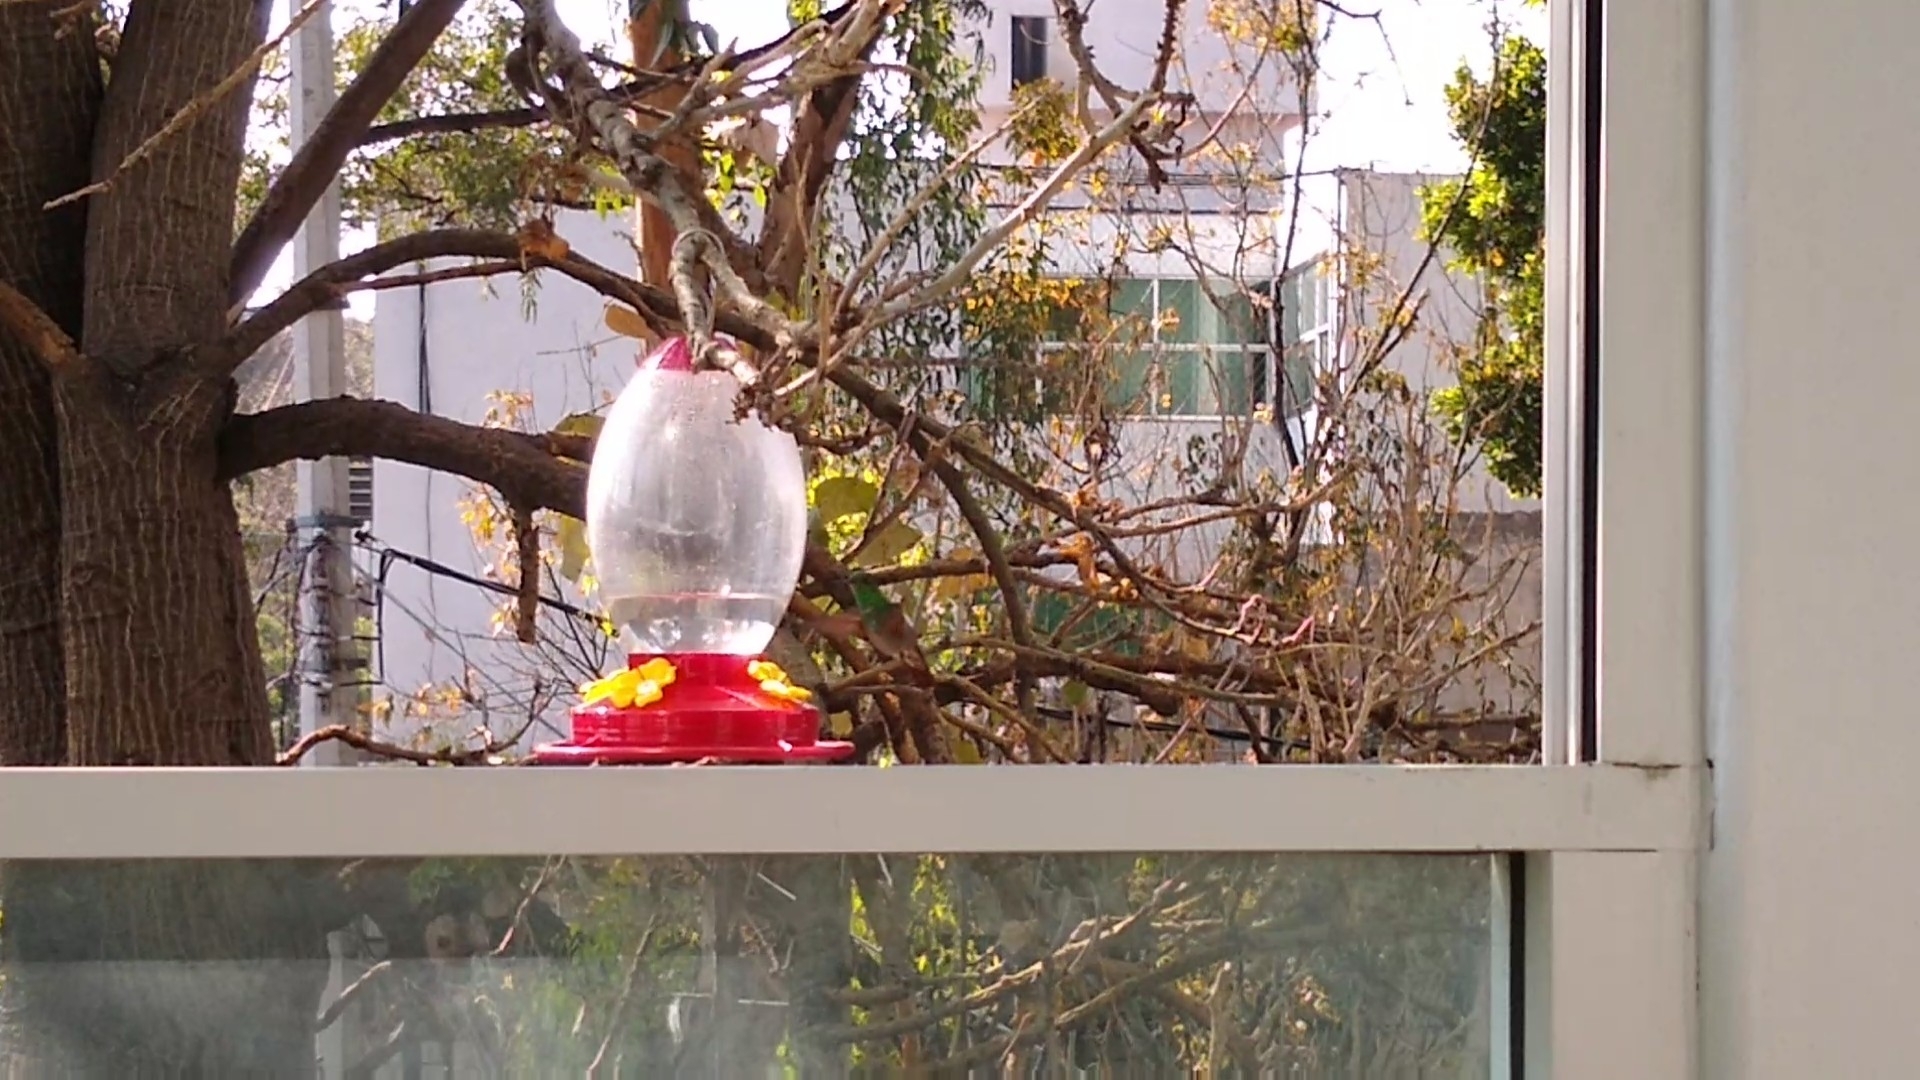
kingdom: Animalia
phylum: Chordata
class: Aves
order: Apodiformes
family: Trochilidae
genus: Saucerottia
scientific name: Saucerottia beryllina
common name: Berylline hummingbird
